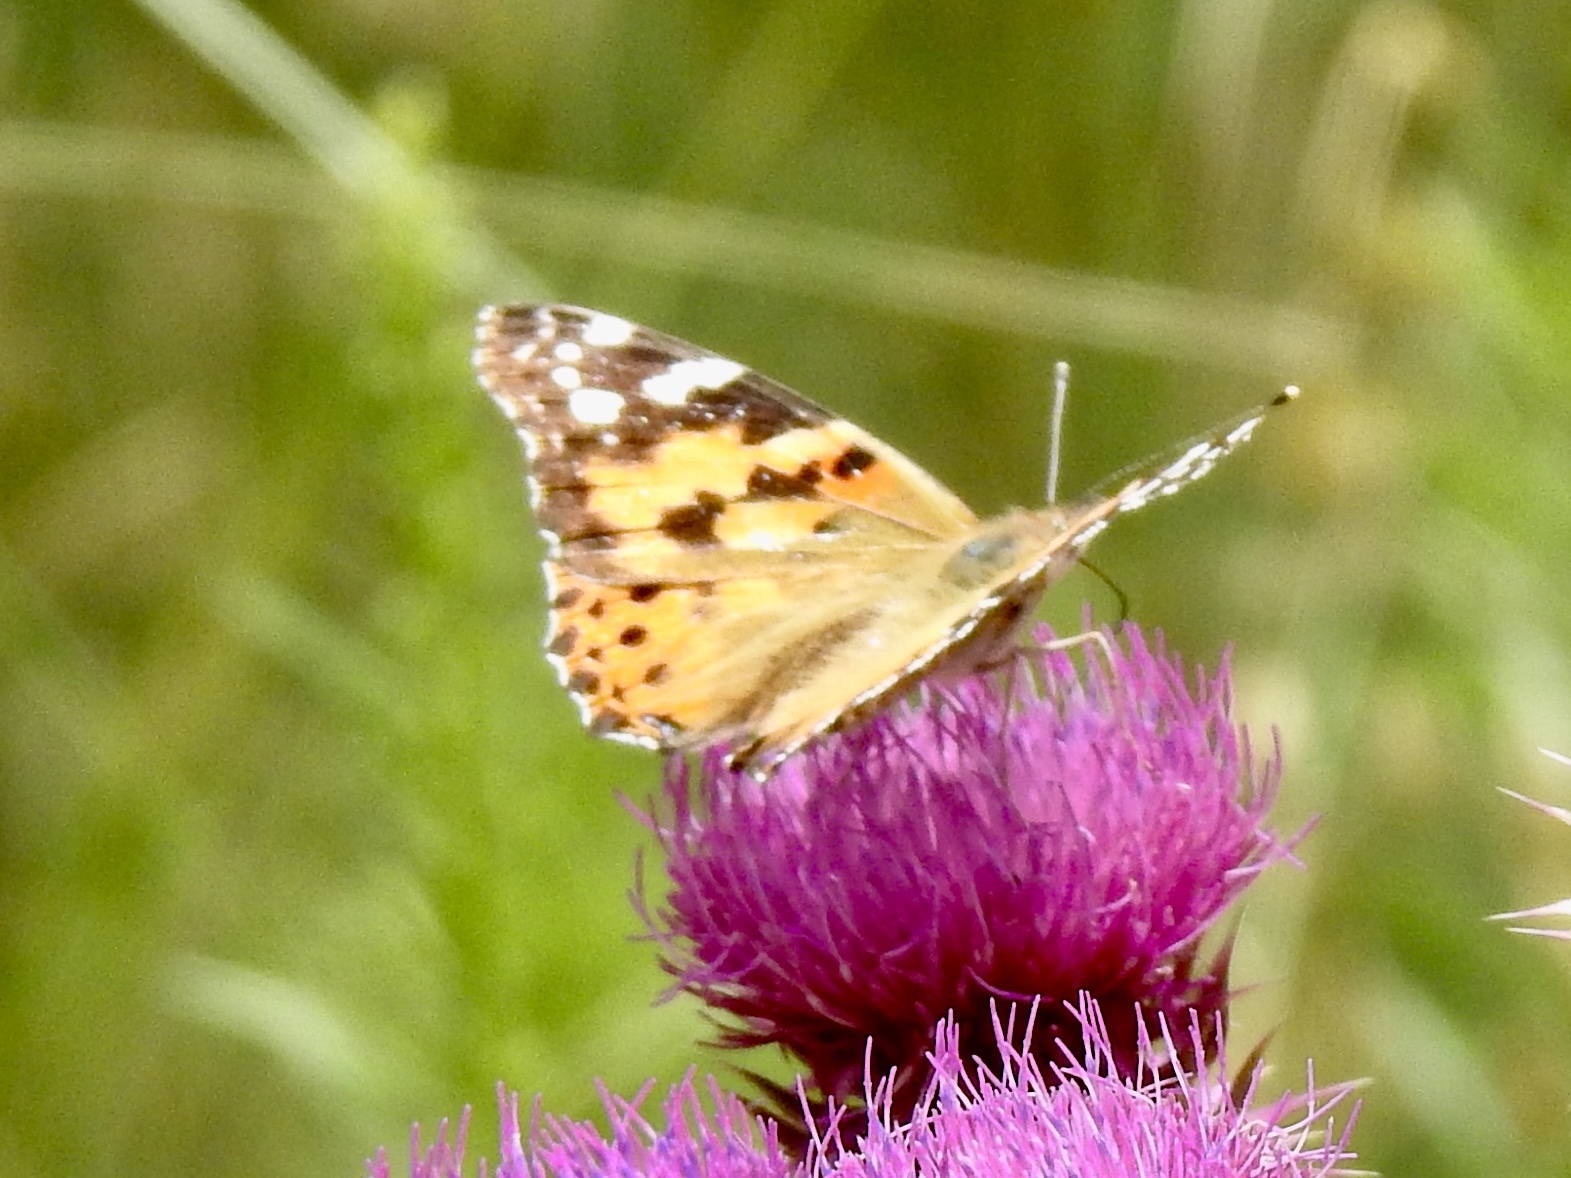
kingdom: Animalia
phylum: Arthropoda
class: Insecta
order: Lepidoptera
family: Nymphalidae
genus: Vanessa
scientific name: Vanessa cardui
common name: Painted lady
